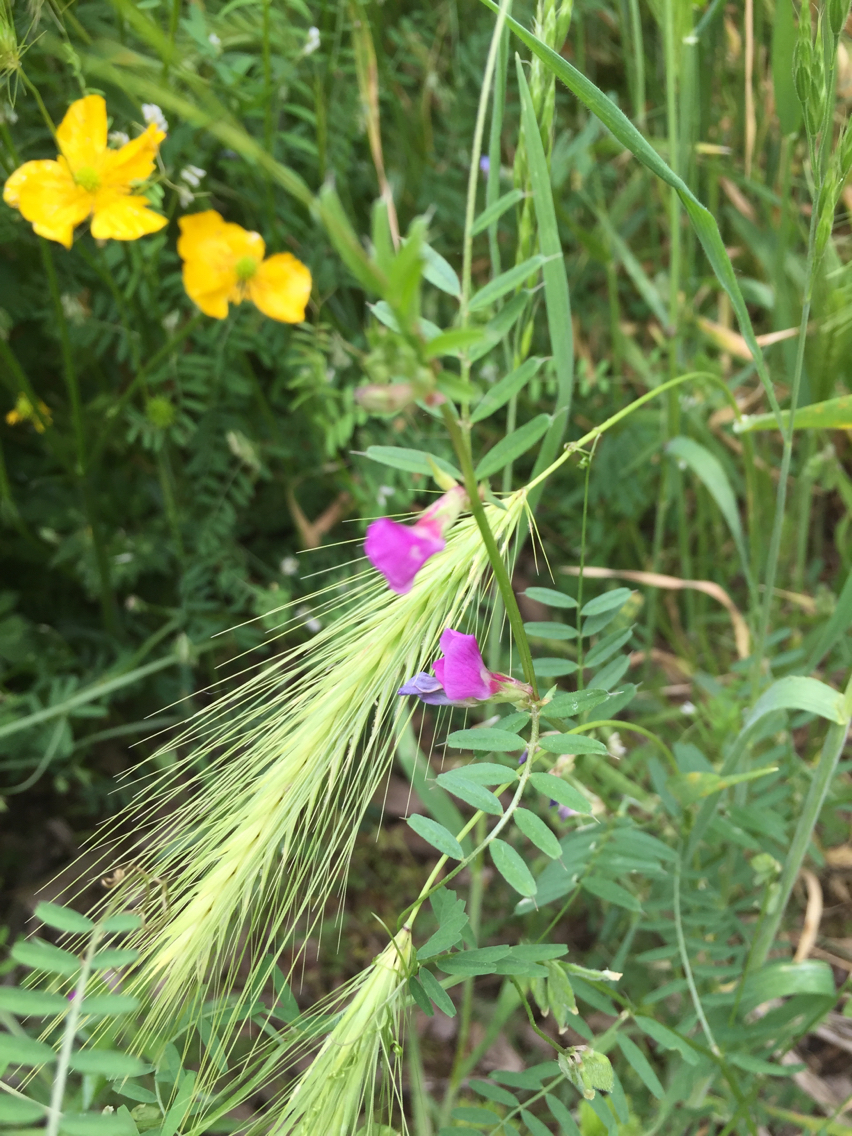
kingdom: Plantae
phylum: Tracheophyta
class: Magnoliopsida
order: Fabales
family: Fabaceae
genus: Vicia
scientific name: Vicia sativa
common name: Garden vetch
